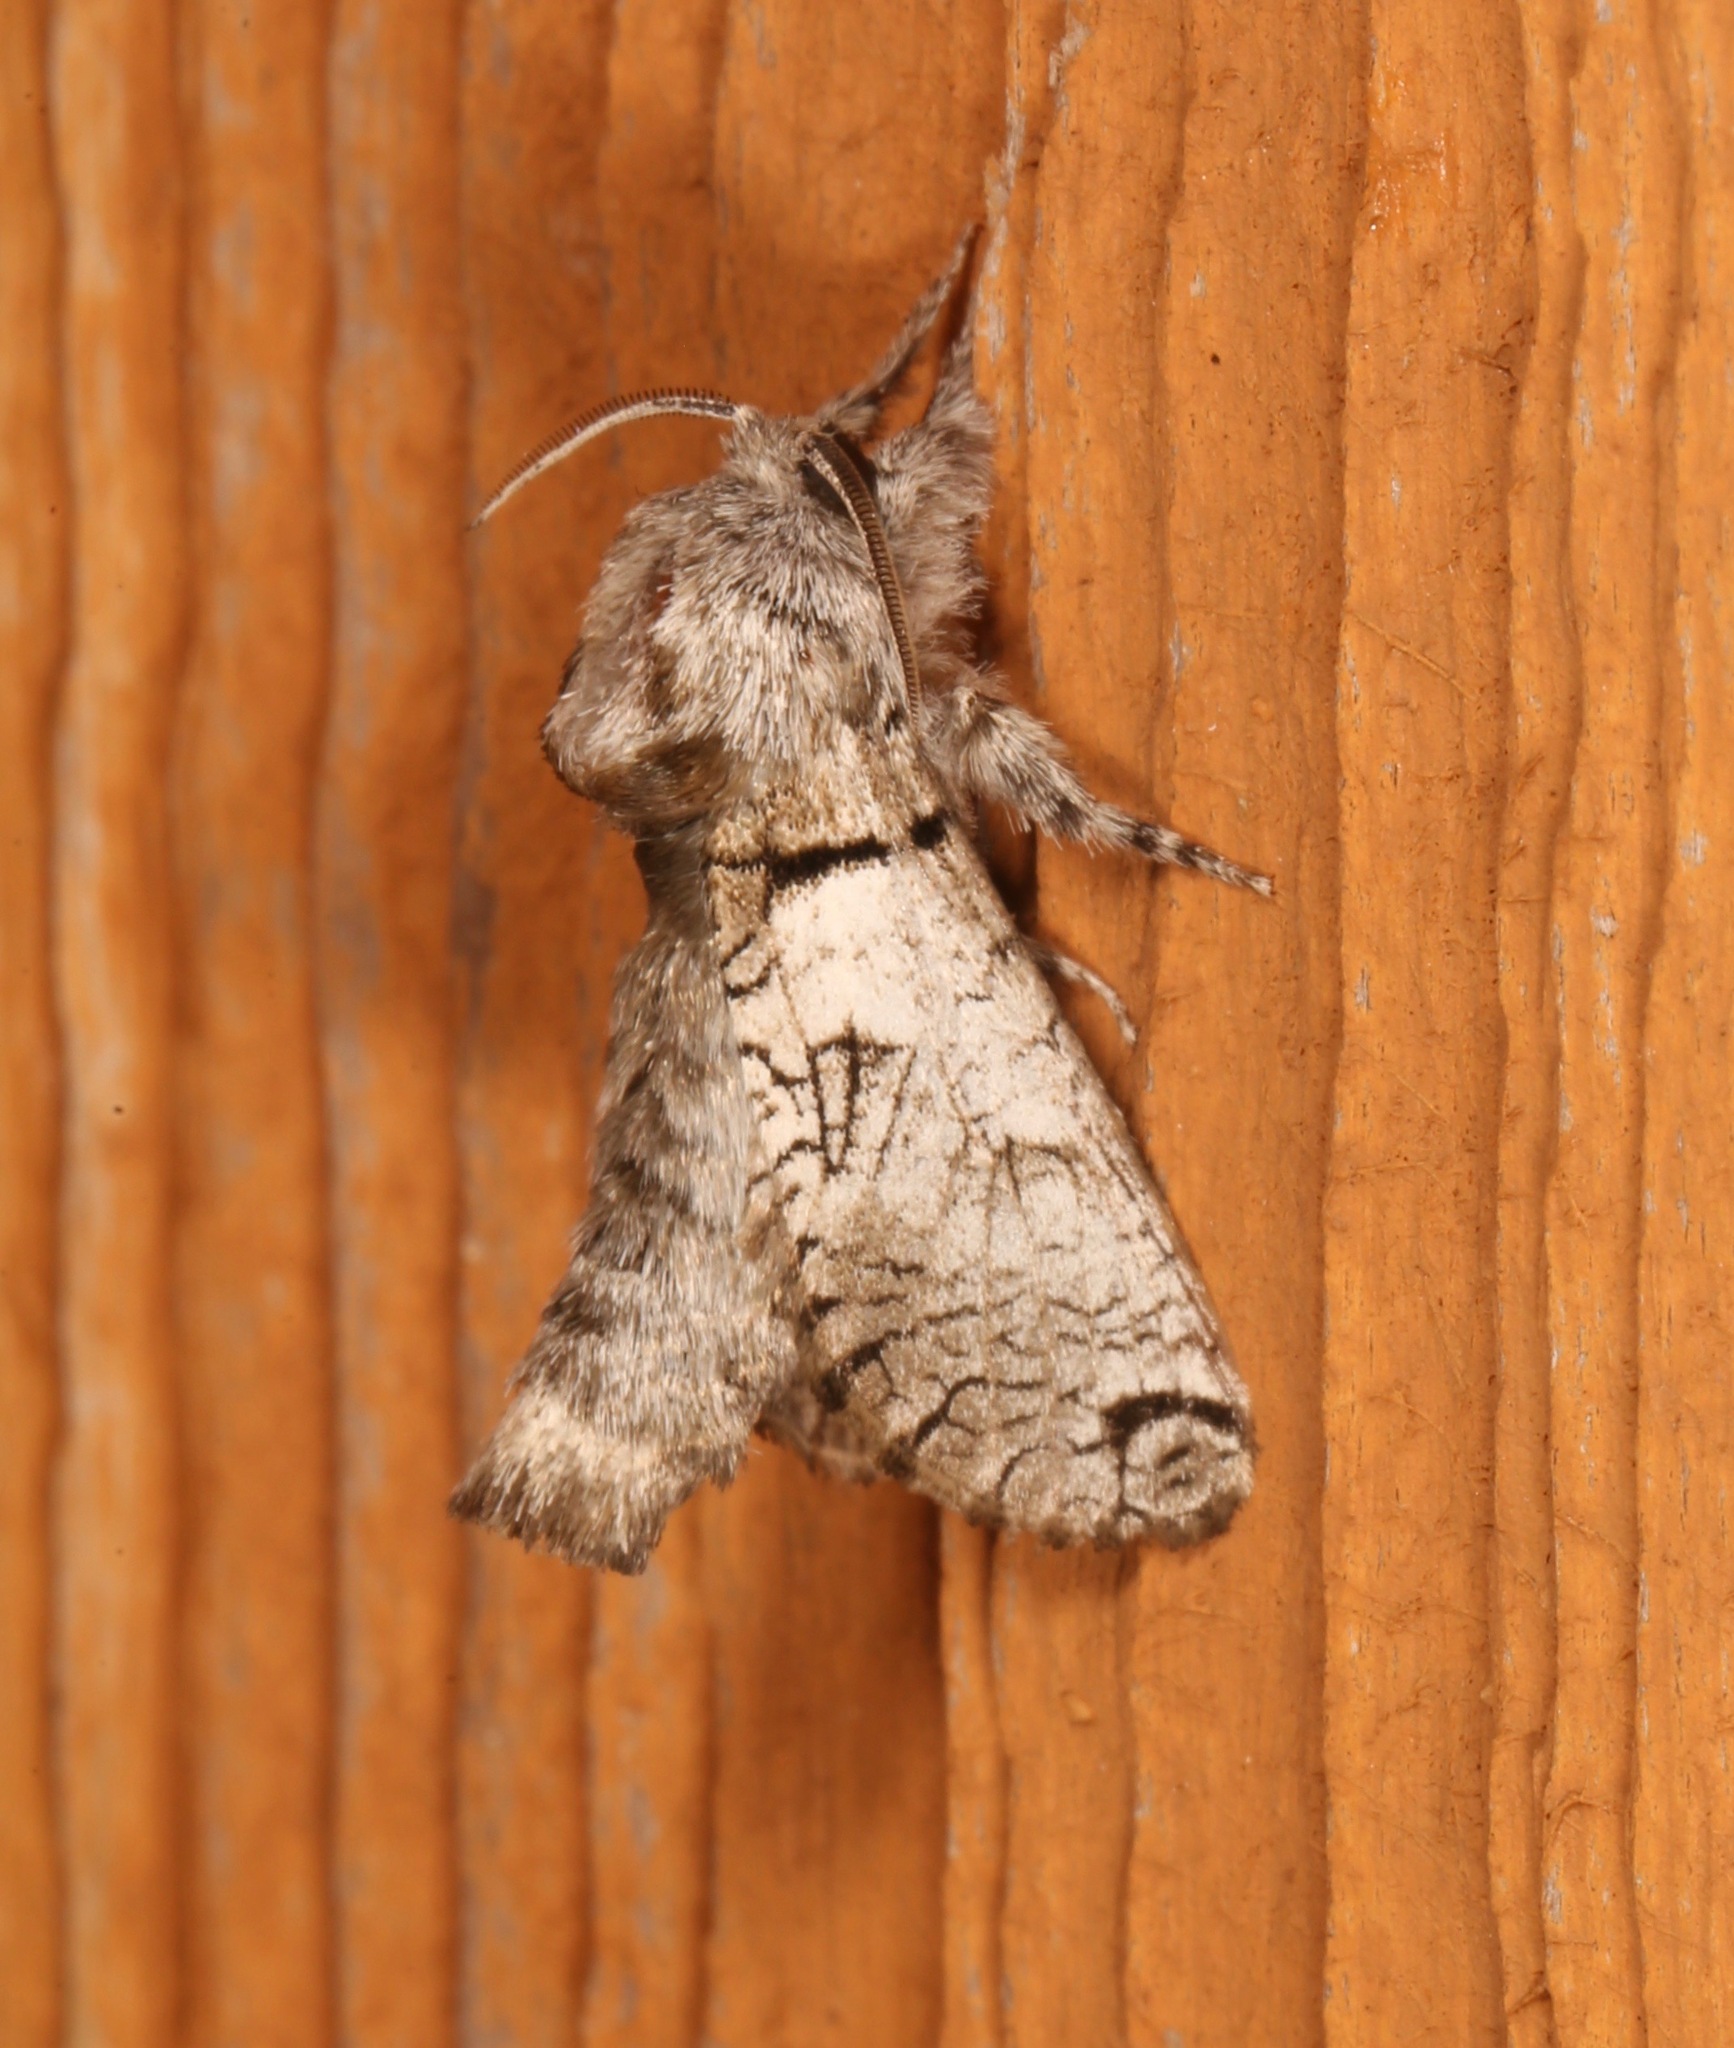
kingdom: Animalia
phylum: Arthropoda
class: Insecta
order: Lepidoptera
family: Cossidae
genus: Inguromorpha
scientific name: Inguromorpha basalis
